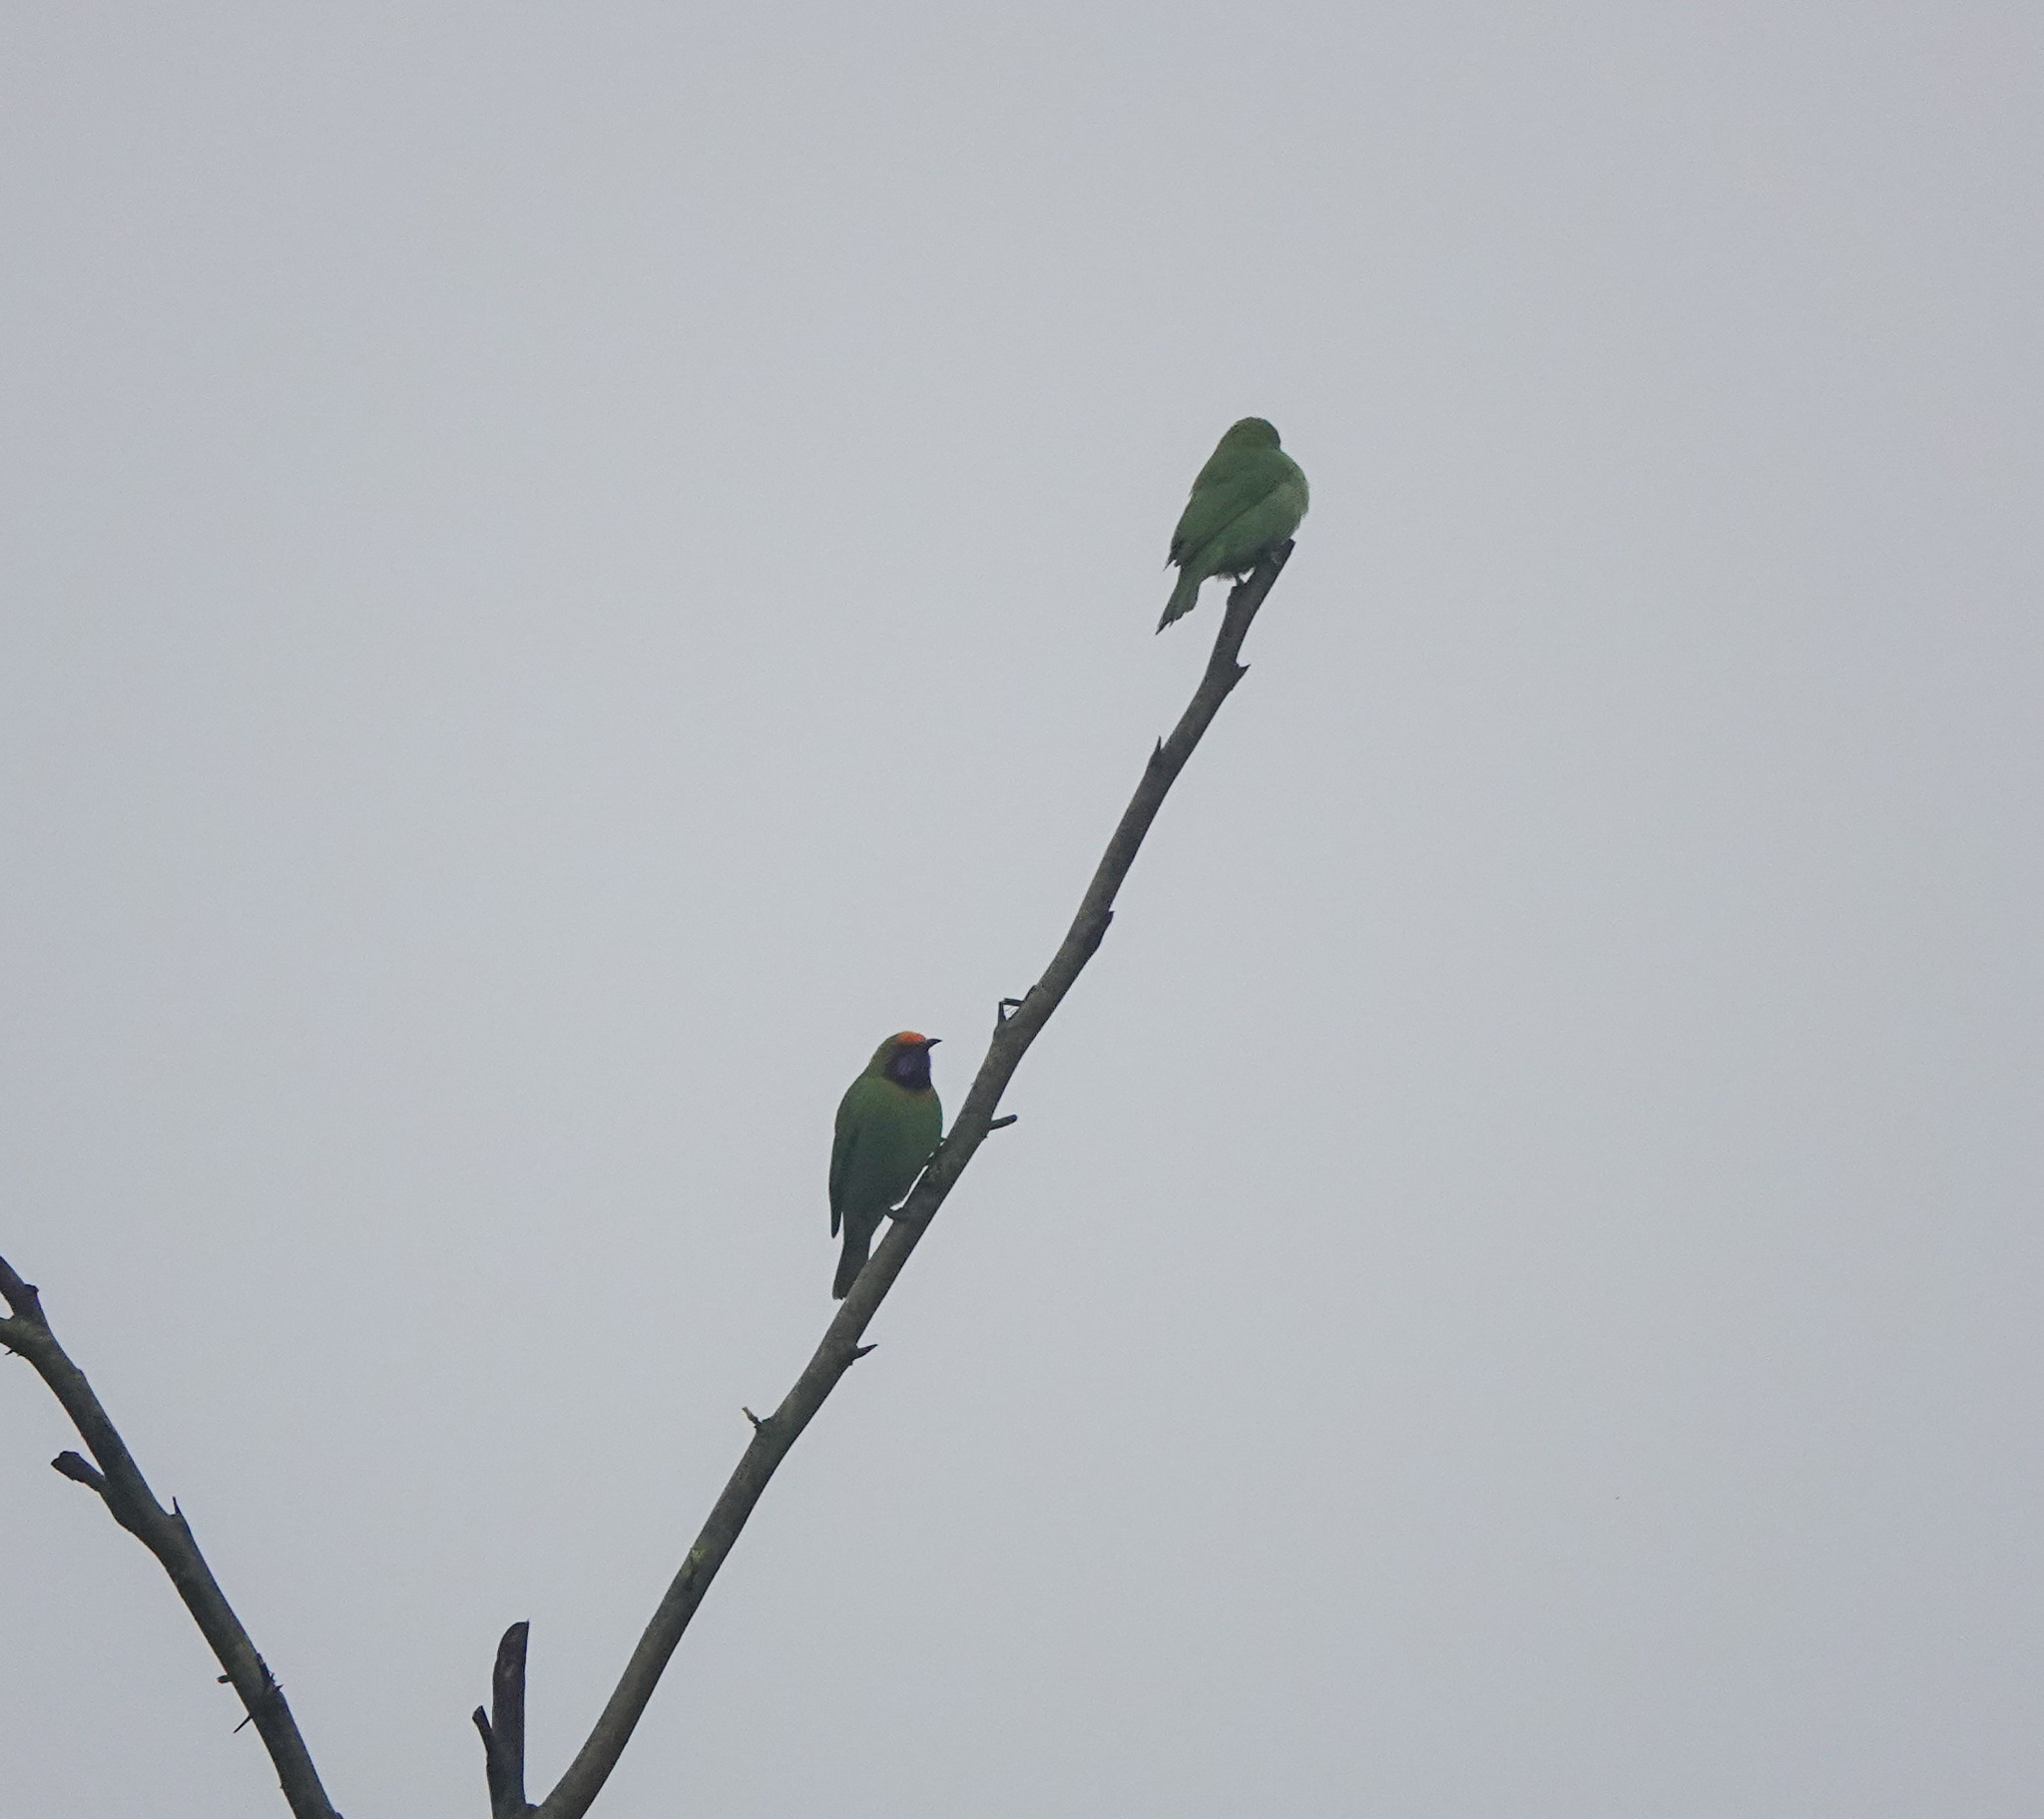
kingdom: Animalia
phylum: Chordata
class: Aves
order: Passeriformes
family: Chloropseidae
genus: Chloropsis
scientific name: Chloropsis aurifrons
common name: Golden-fronted leafbird
